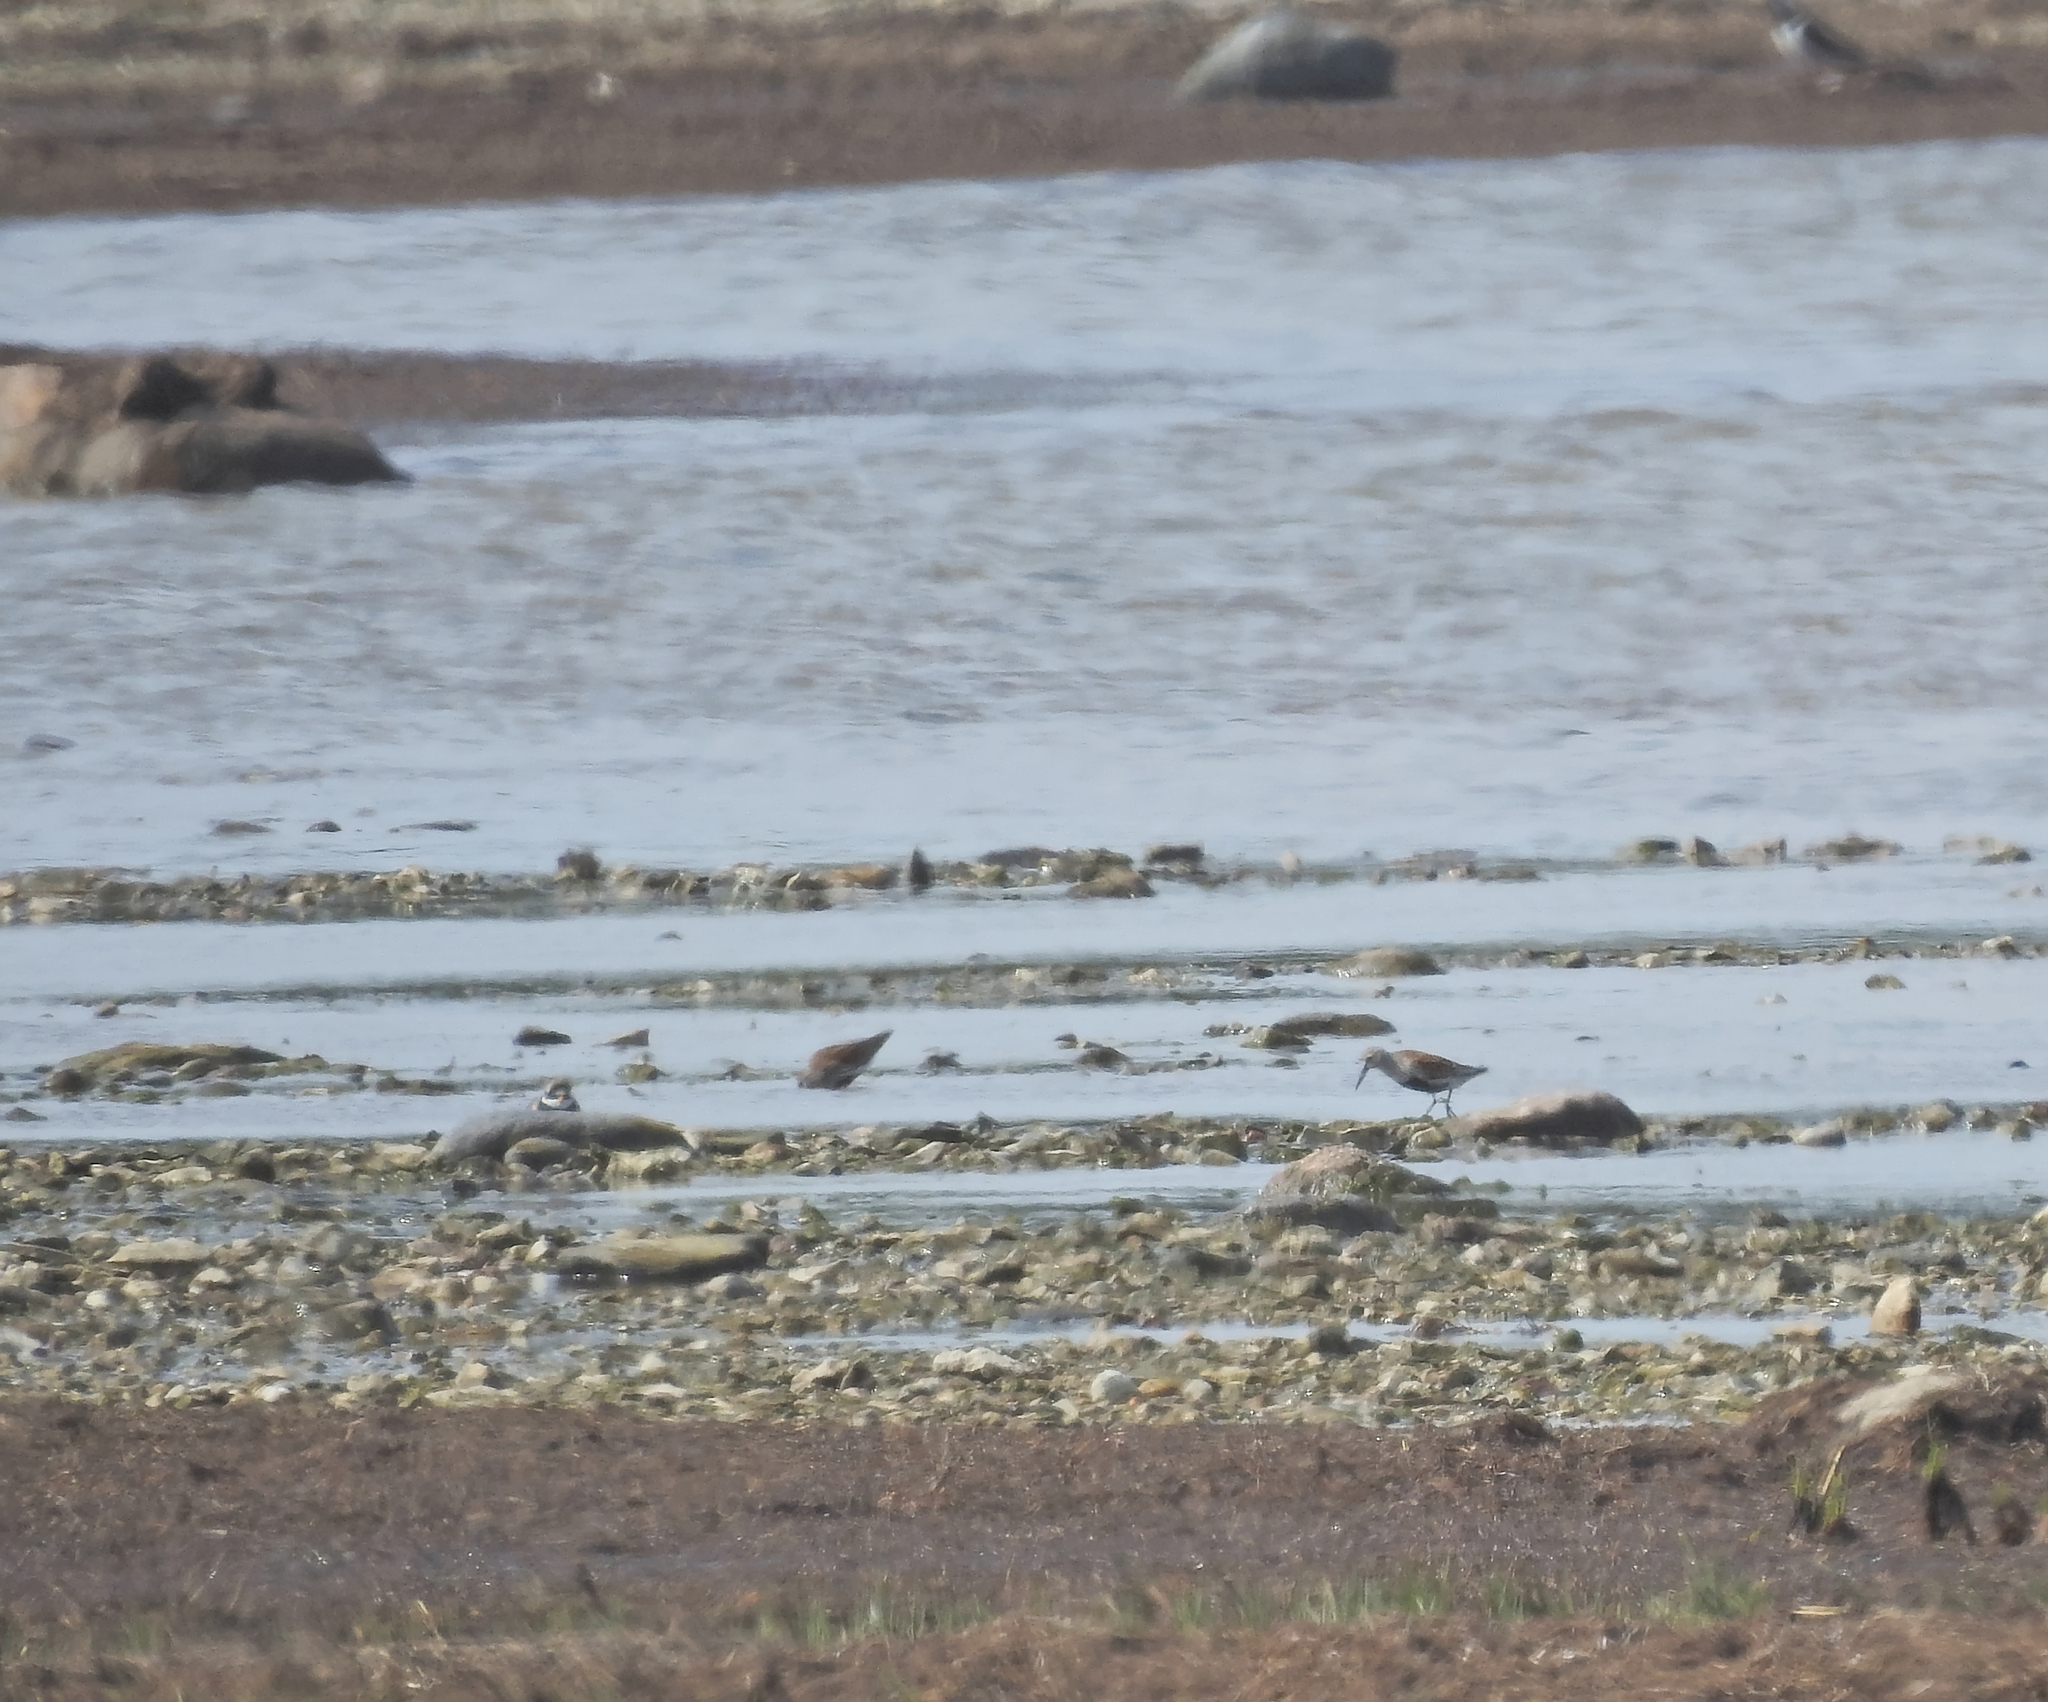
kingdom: Animalia
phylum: Chordata
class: Aves
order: Charadriiformes
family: Scolopacidae
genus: Calidris
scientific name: Calidris alpina
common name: Dunlin
